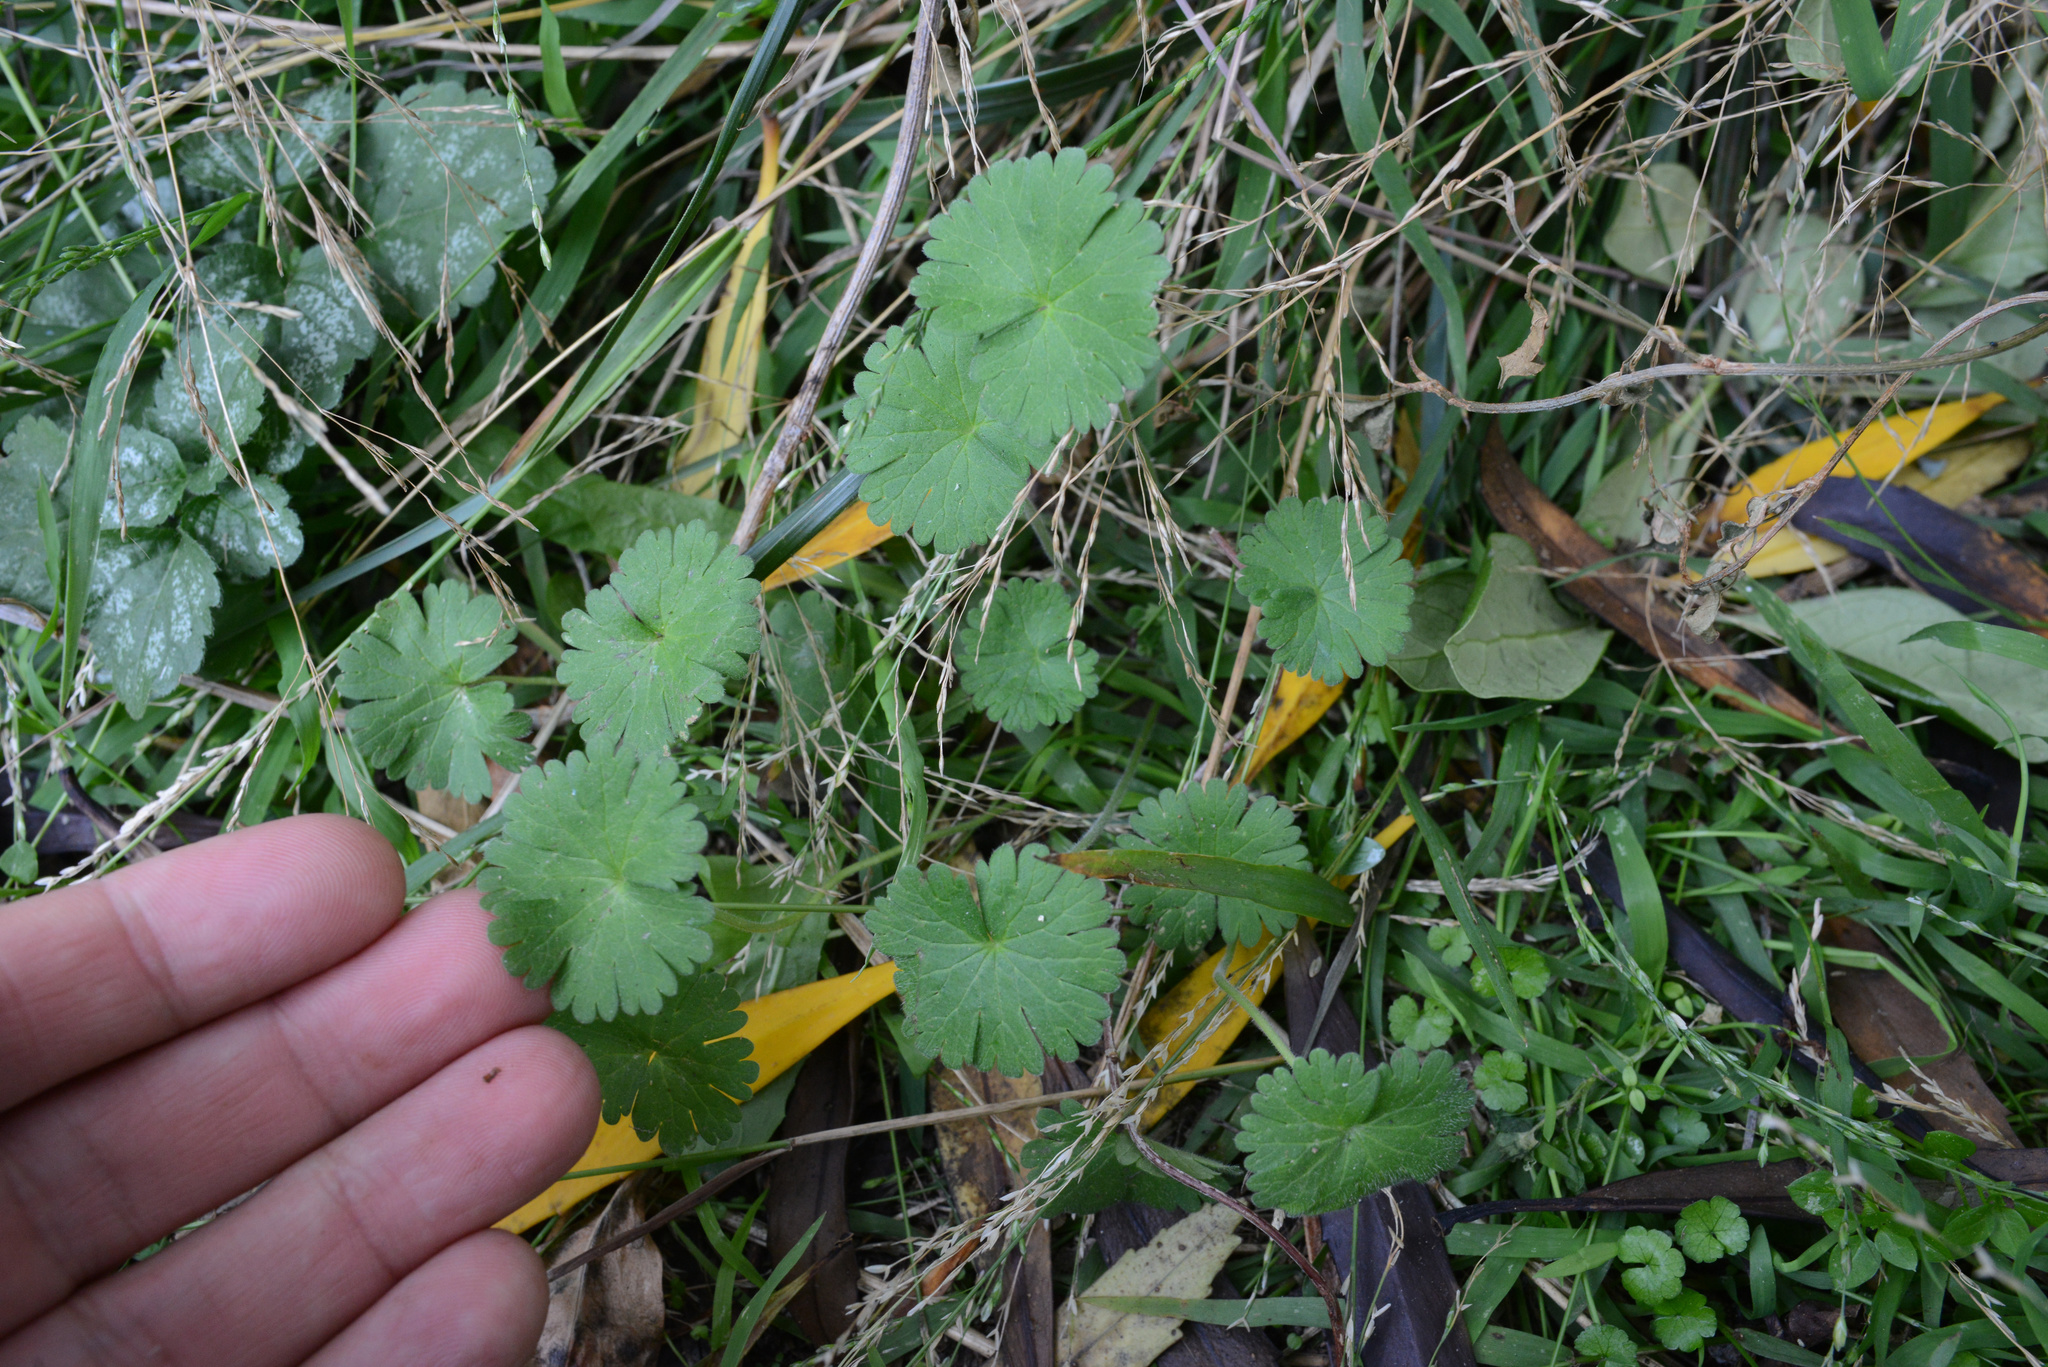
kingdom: Plantae
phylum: Tracheophyta
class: Magnoliopsida
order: Geraniales
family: Geraniaceae
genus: Geranium
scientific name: Geranium molle
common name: Dove's-foot crane's-bill
